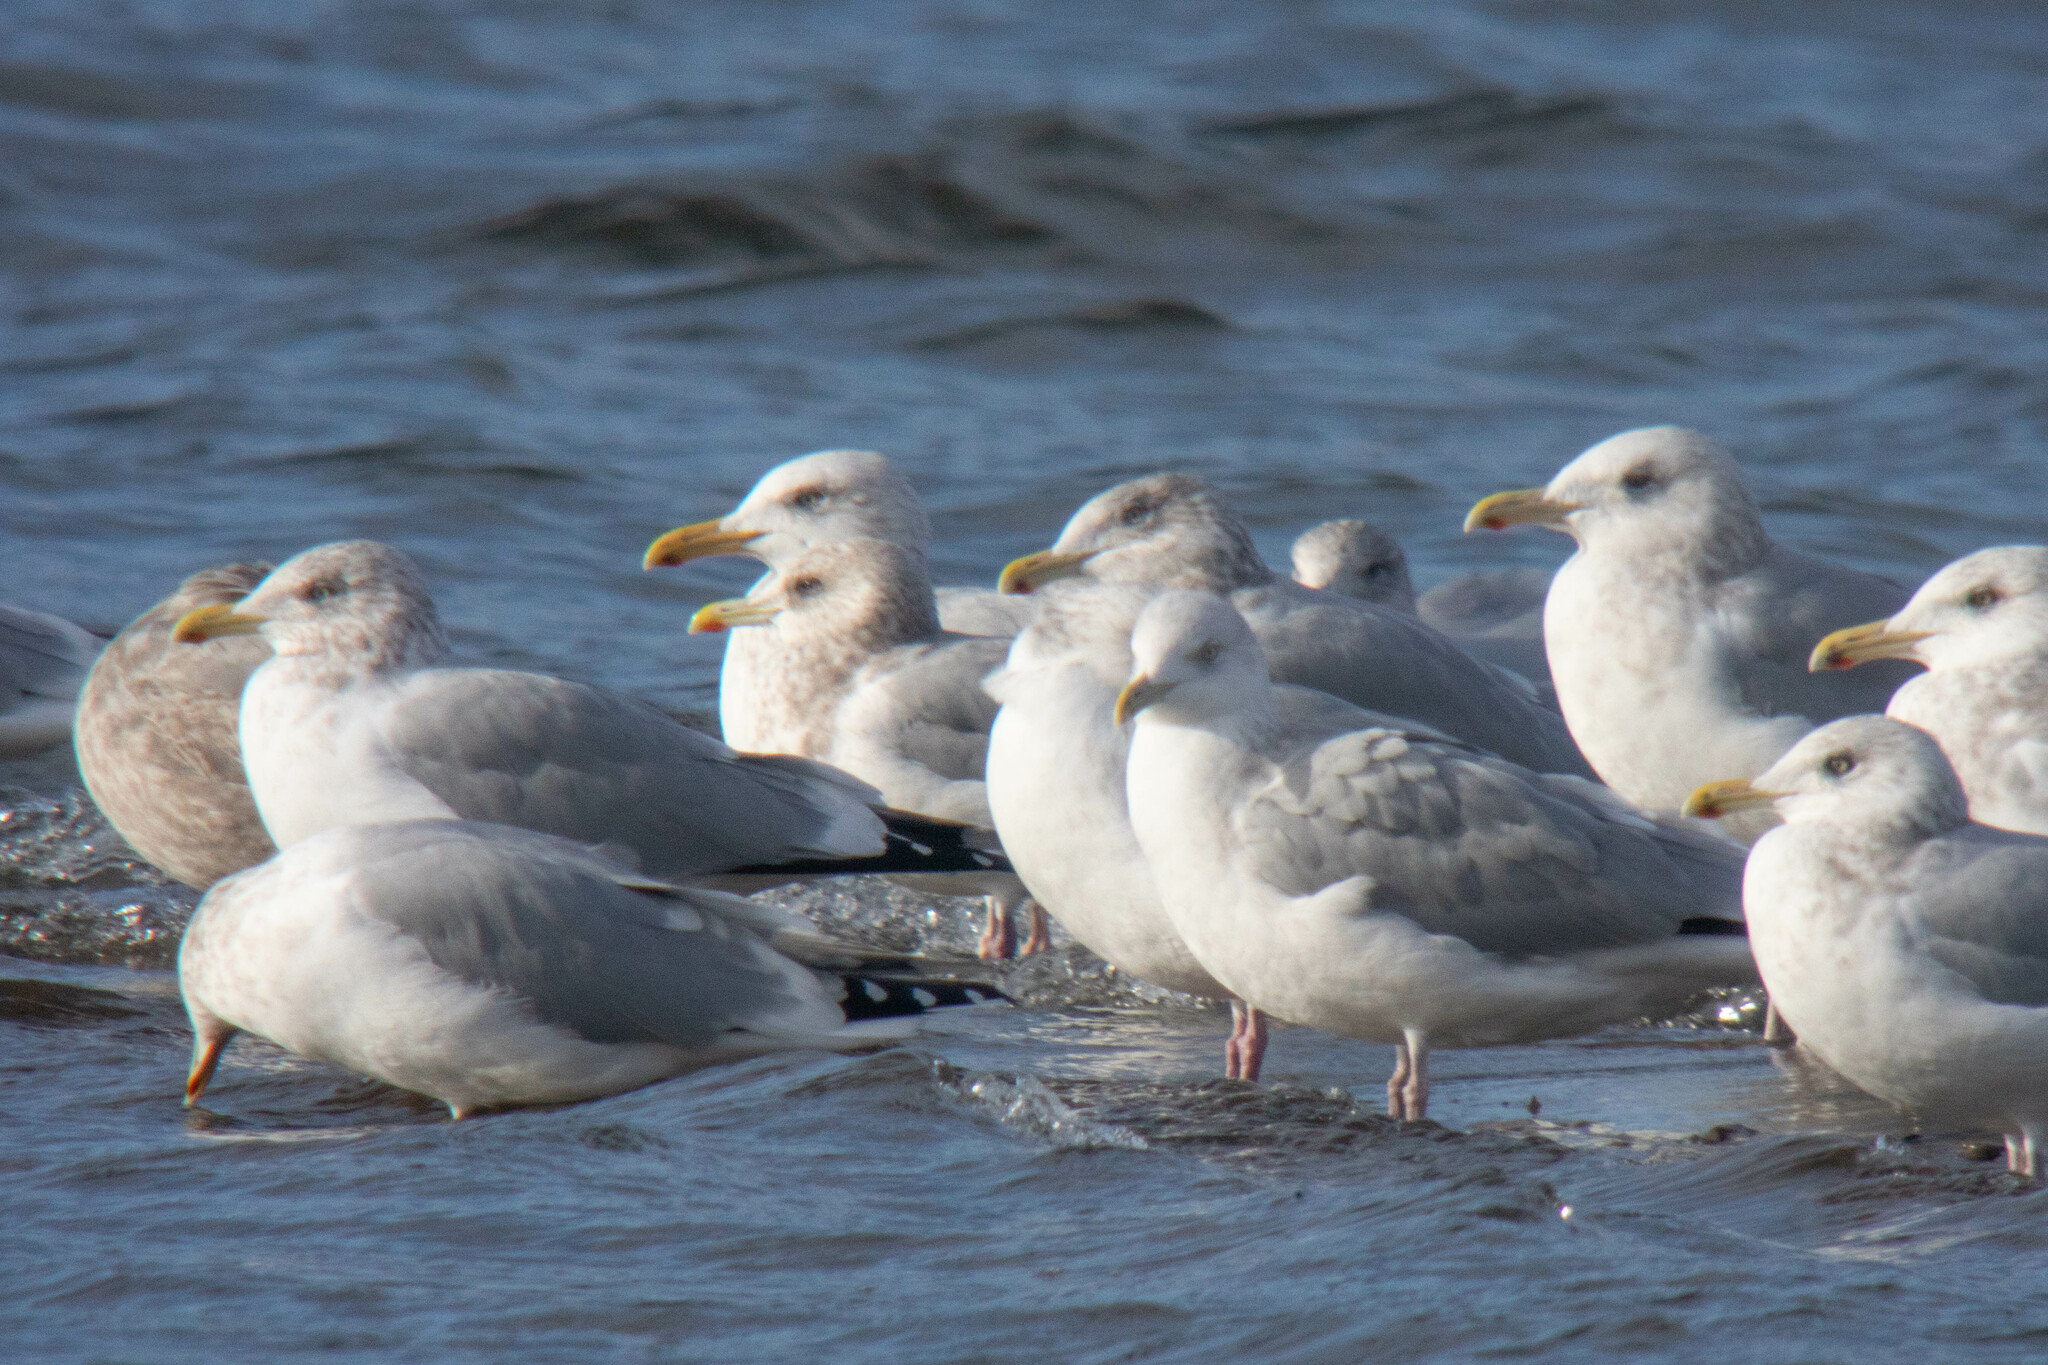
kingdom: Animalia
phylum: Chordata
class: Aves
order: Charadriiformes
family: Laridae
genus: Larus
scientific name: Larus glaucoides
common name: Iceland gull
